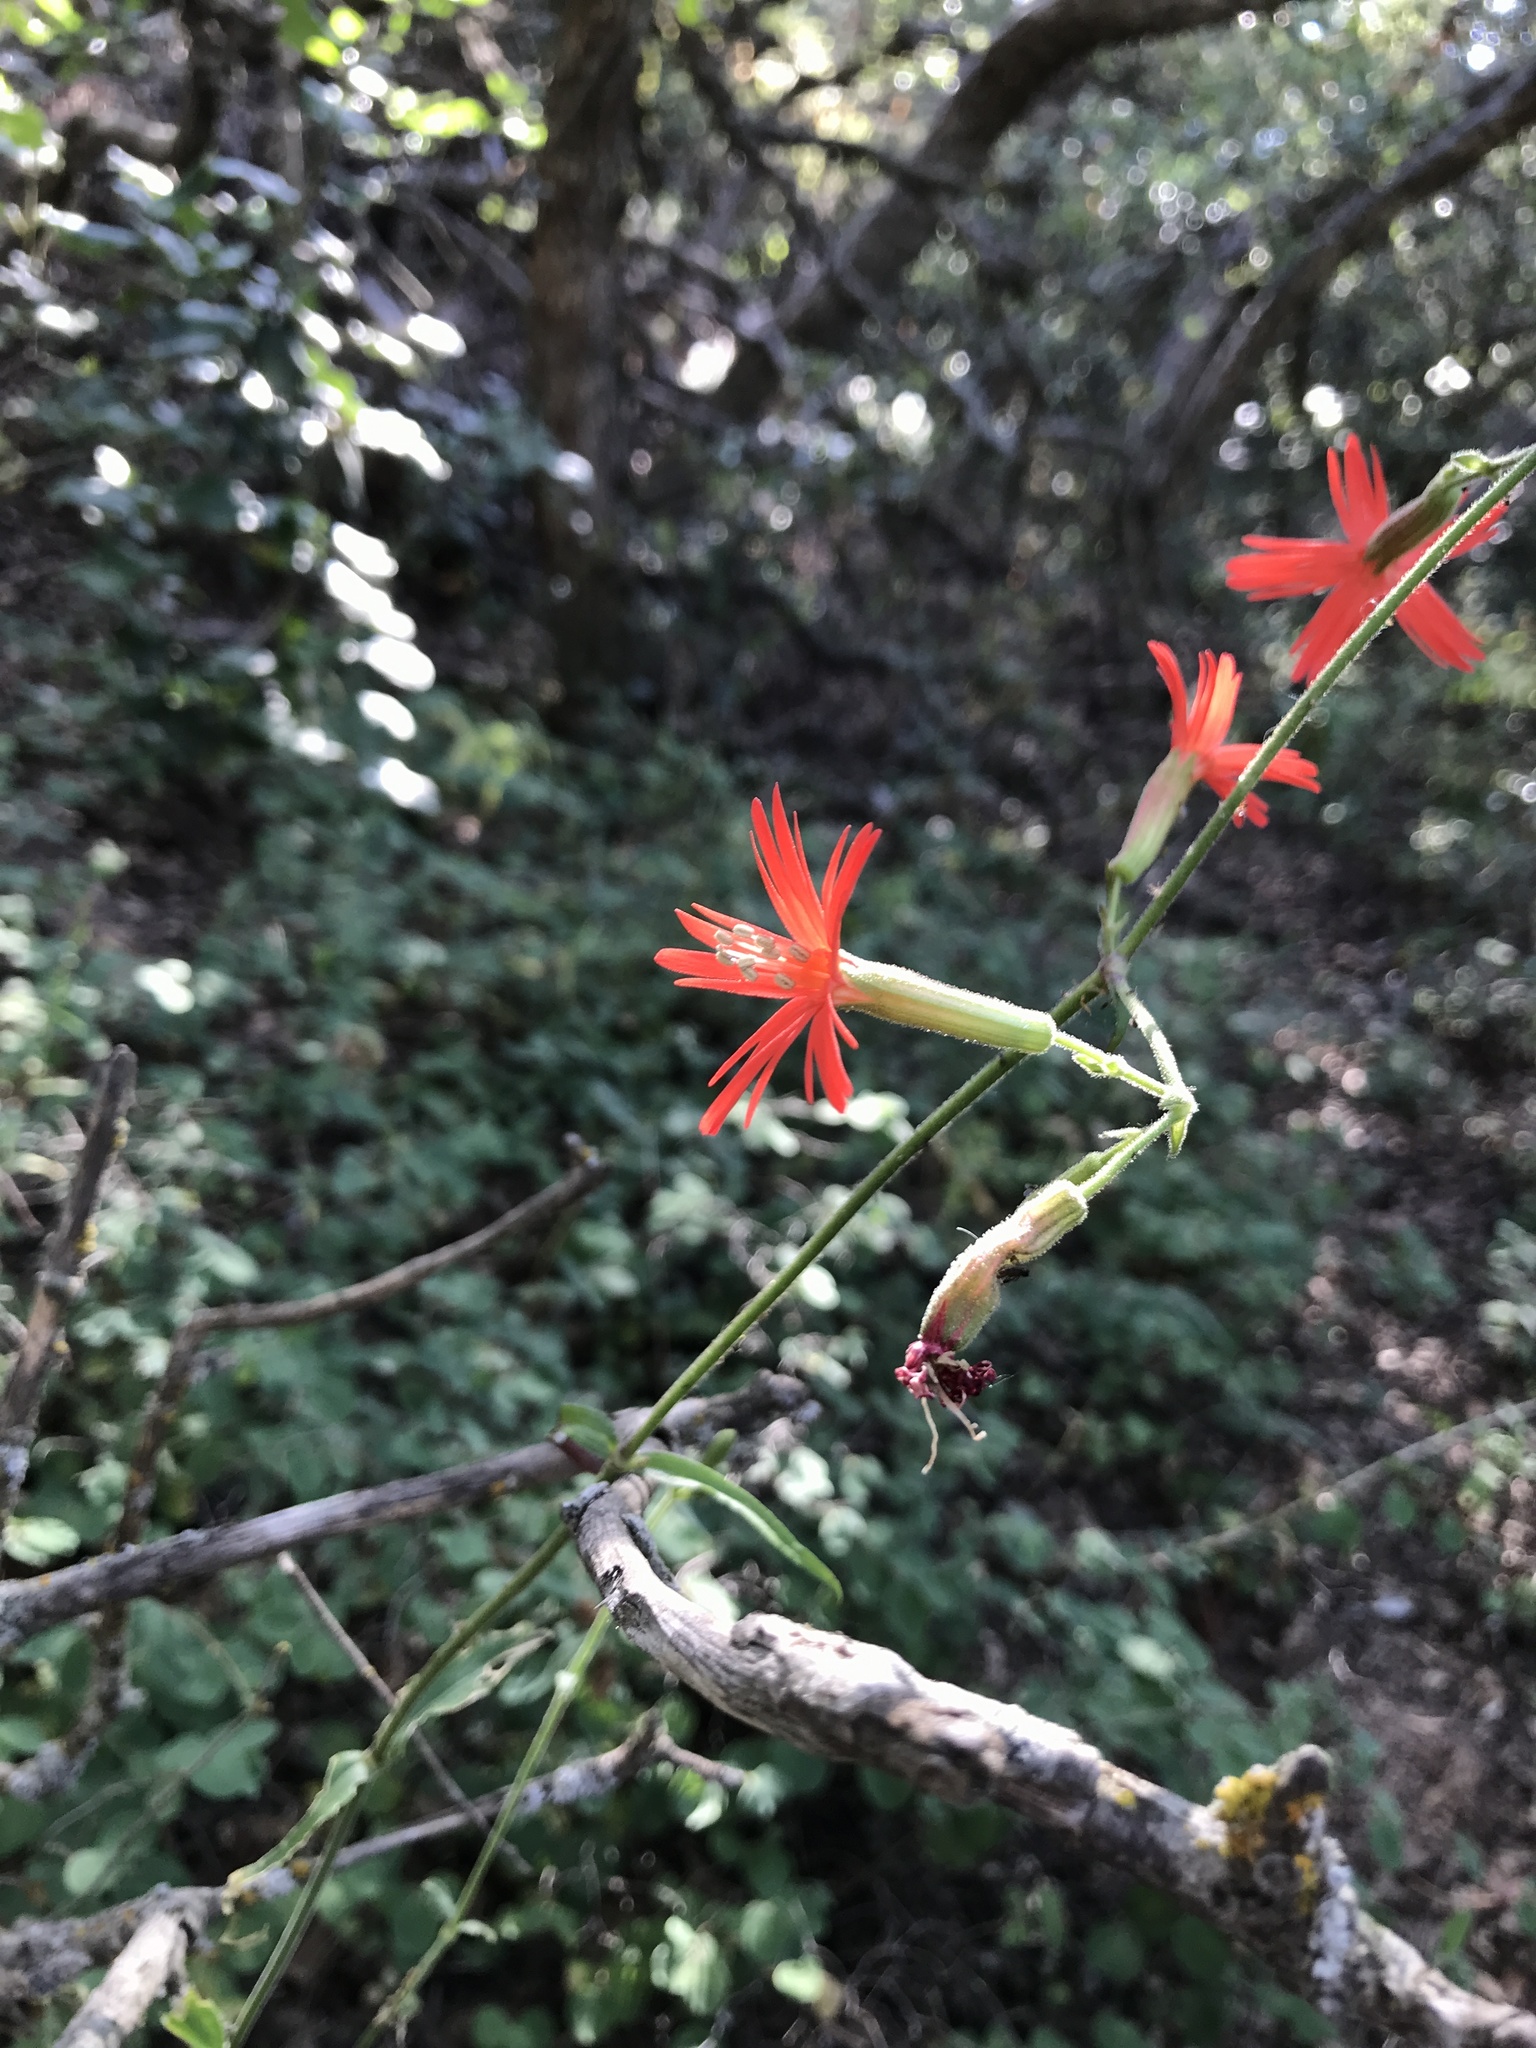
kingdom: Plantae
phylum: Tracheophyta
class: Magnoliopsida
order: Caryophyllales
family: Caryophyllaceae
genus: Silene
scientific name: Silene laciniata
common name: Indian-pink
